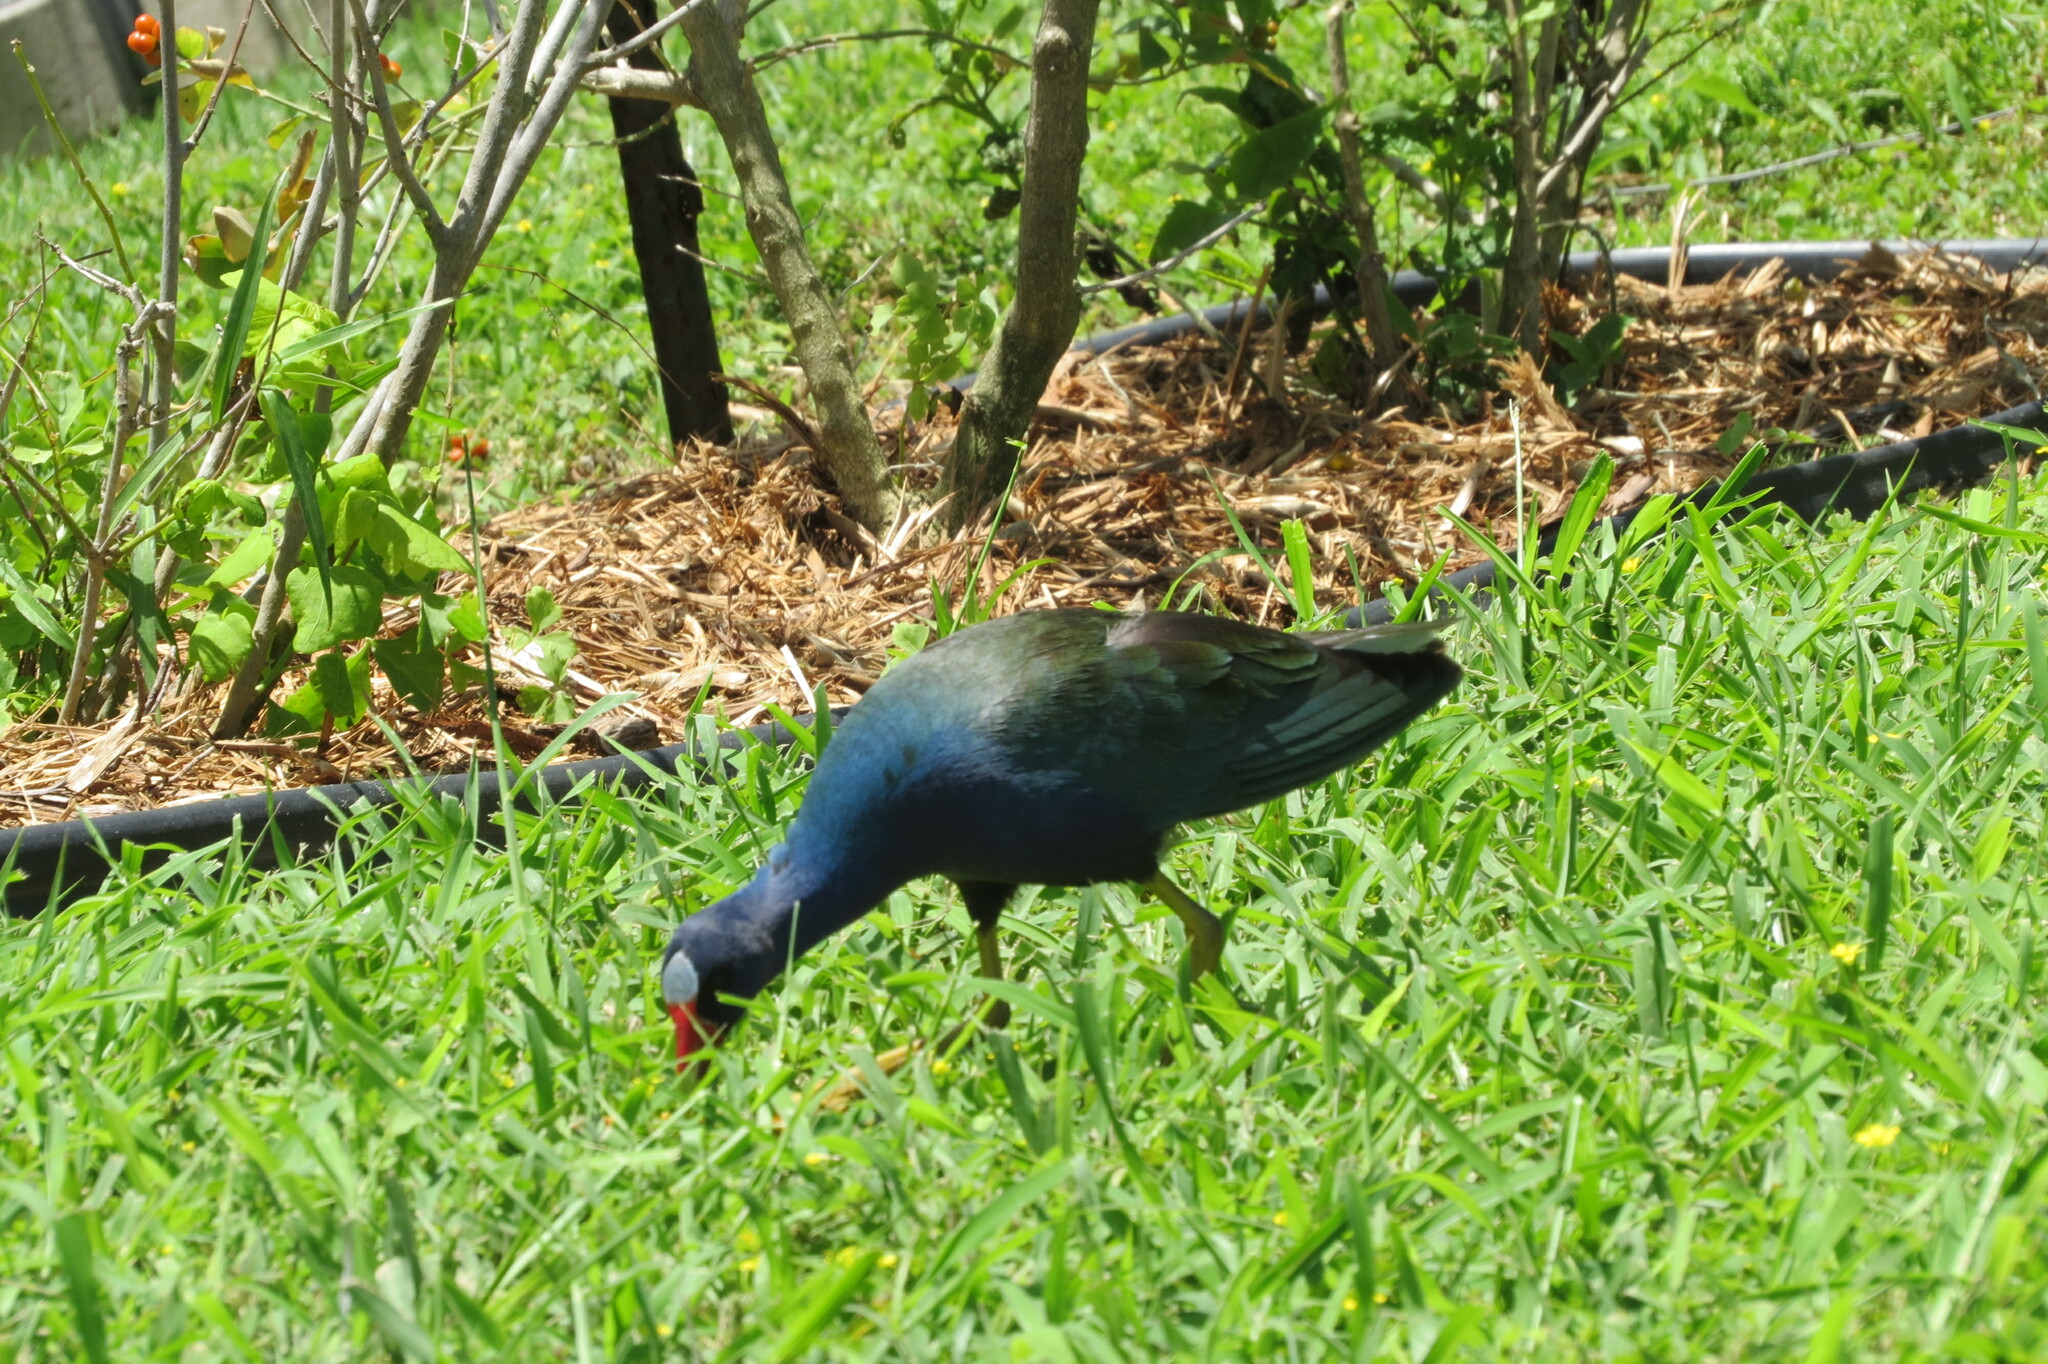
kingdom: Animalia
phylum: Chordata
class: Aves
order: Gruiformes
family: Rallidae
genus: Porphyrio
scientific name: Porphyrio martinica
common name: Purple gallinule
